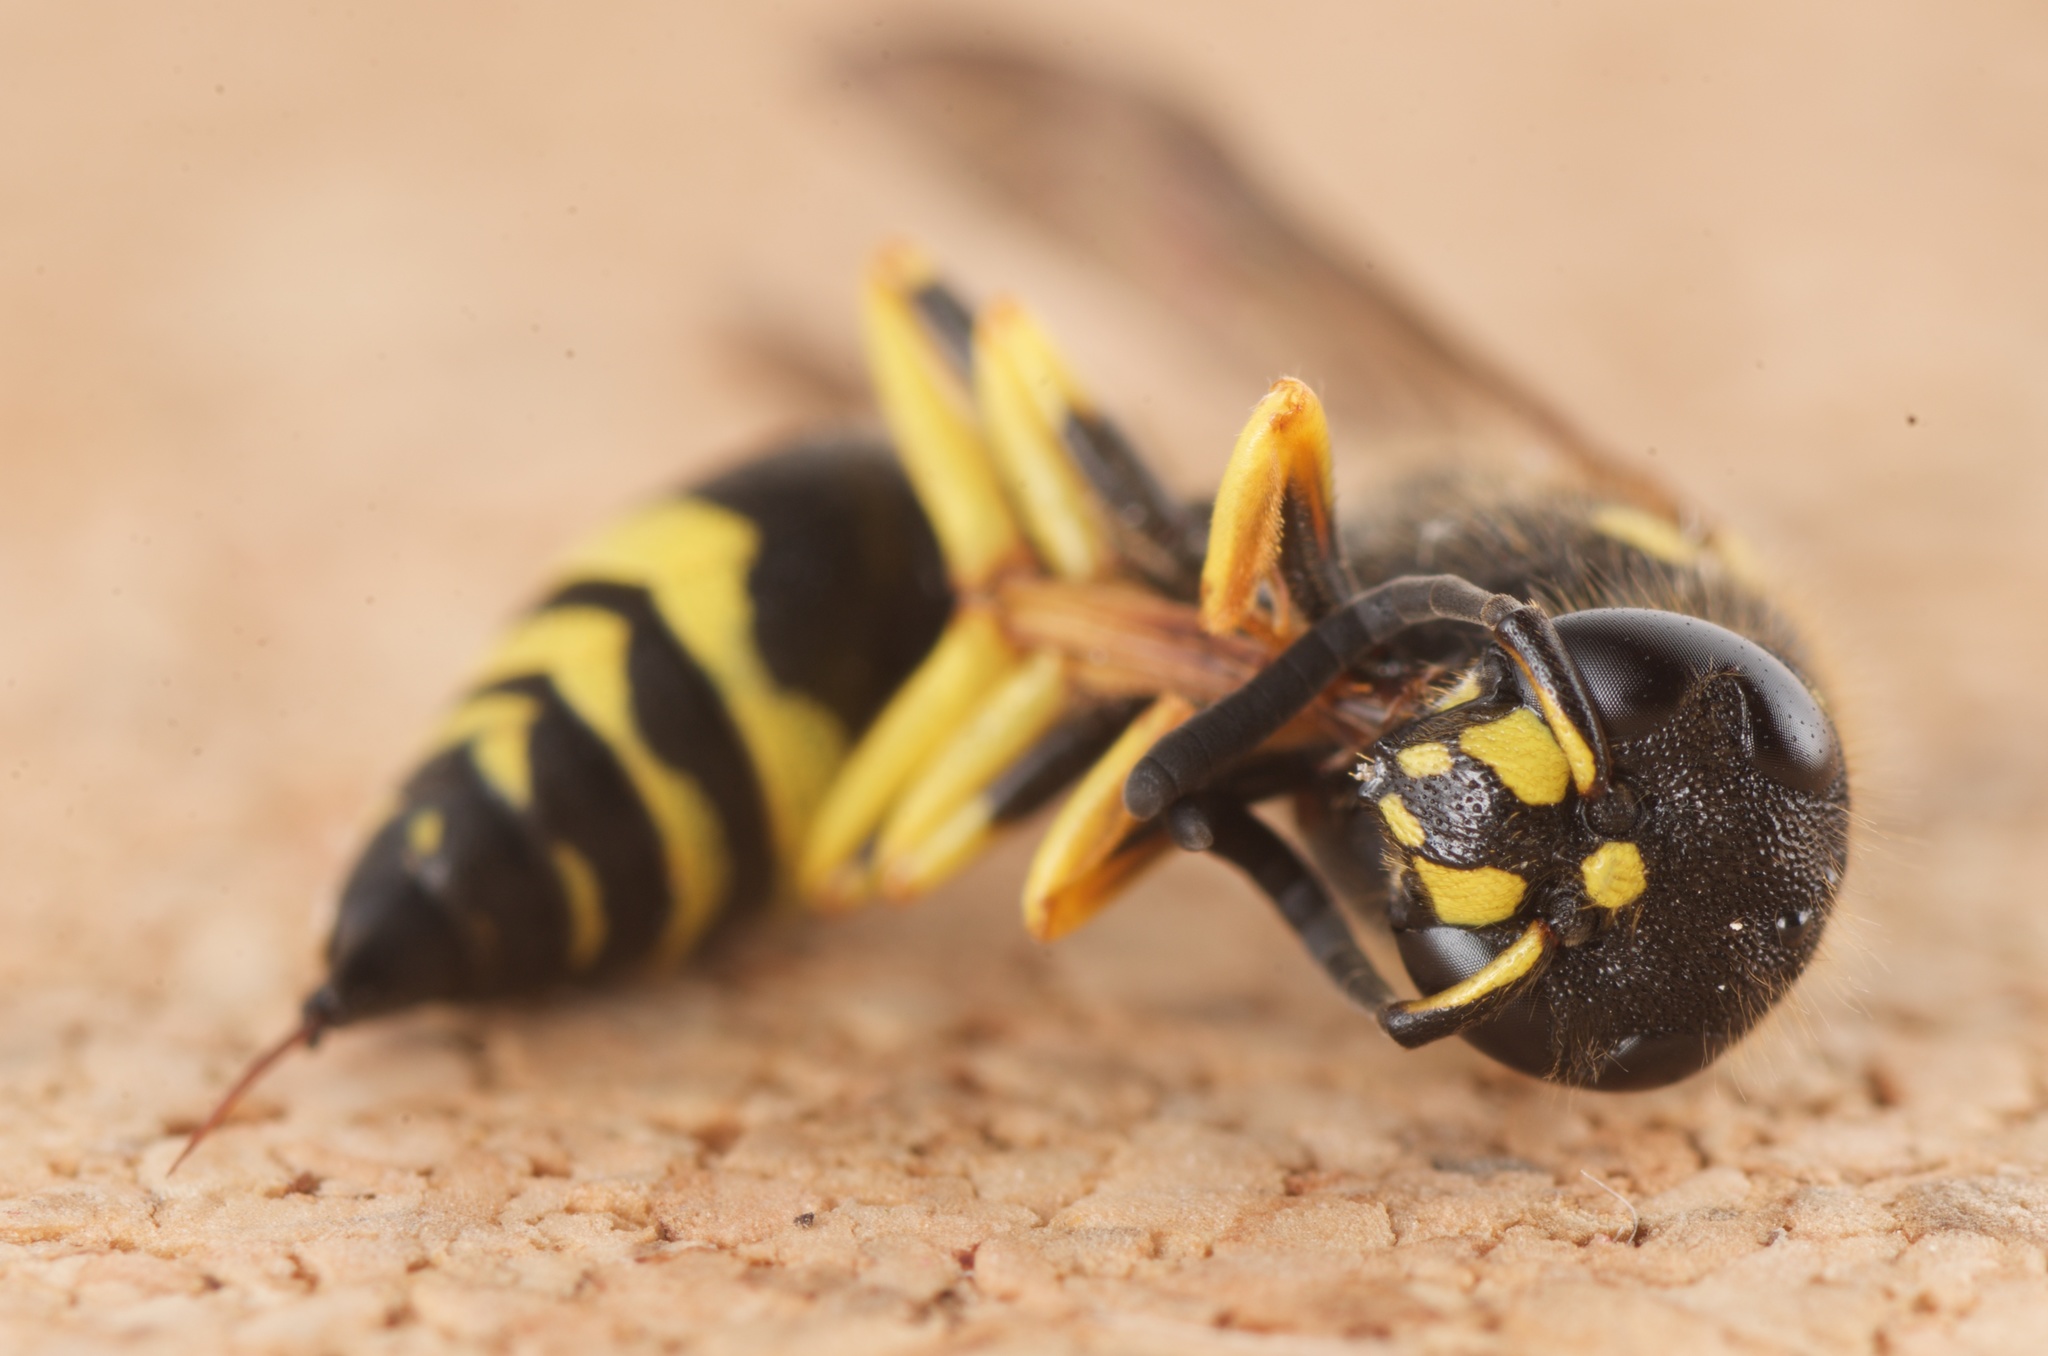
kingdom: Animalia
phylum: Arthropoda
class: Insecta
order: Hymenoptera
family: Vespidae
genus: Ancistrocerus
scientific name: Ancistrocerus gazella
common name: European tube wasp
